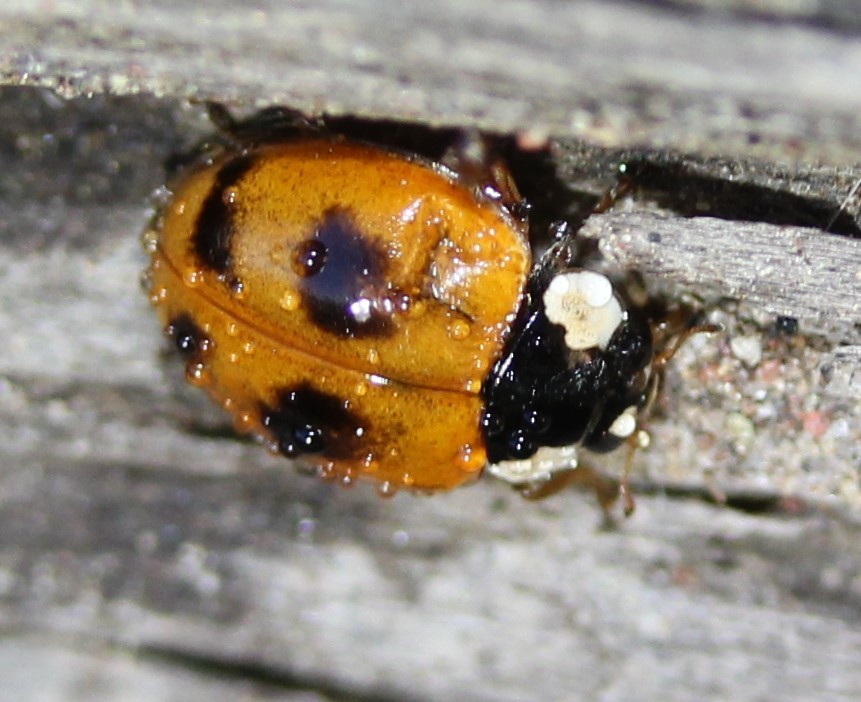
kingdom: Animalia
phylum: Arthropoda
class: Insecta
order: Coleoptera
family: Coccinellidae
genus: Adalia
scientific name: Adalia bipunctata
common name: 2-spot ladybird
